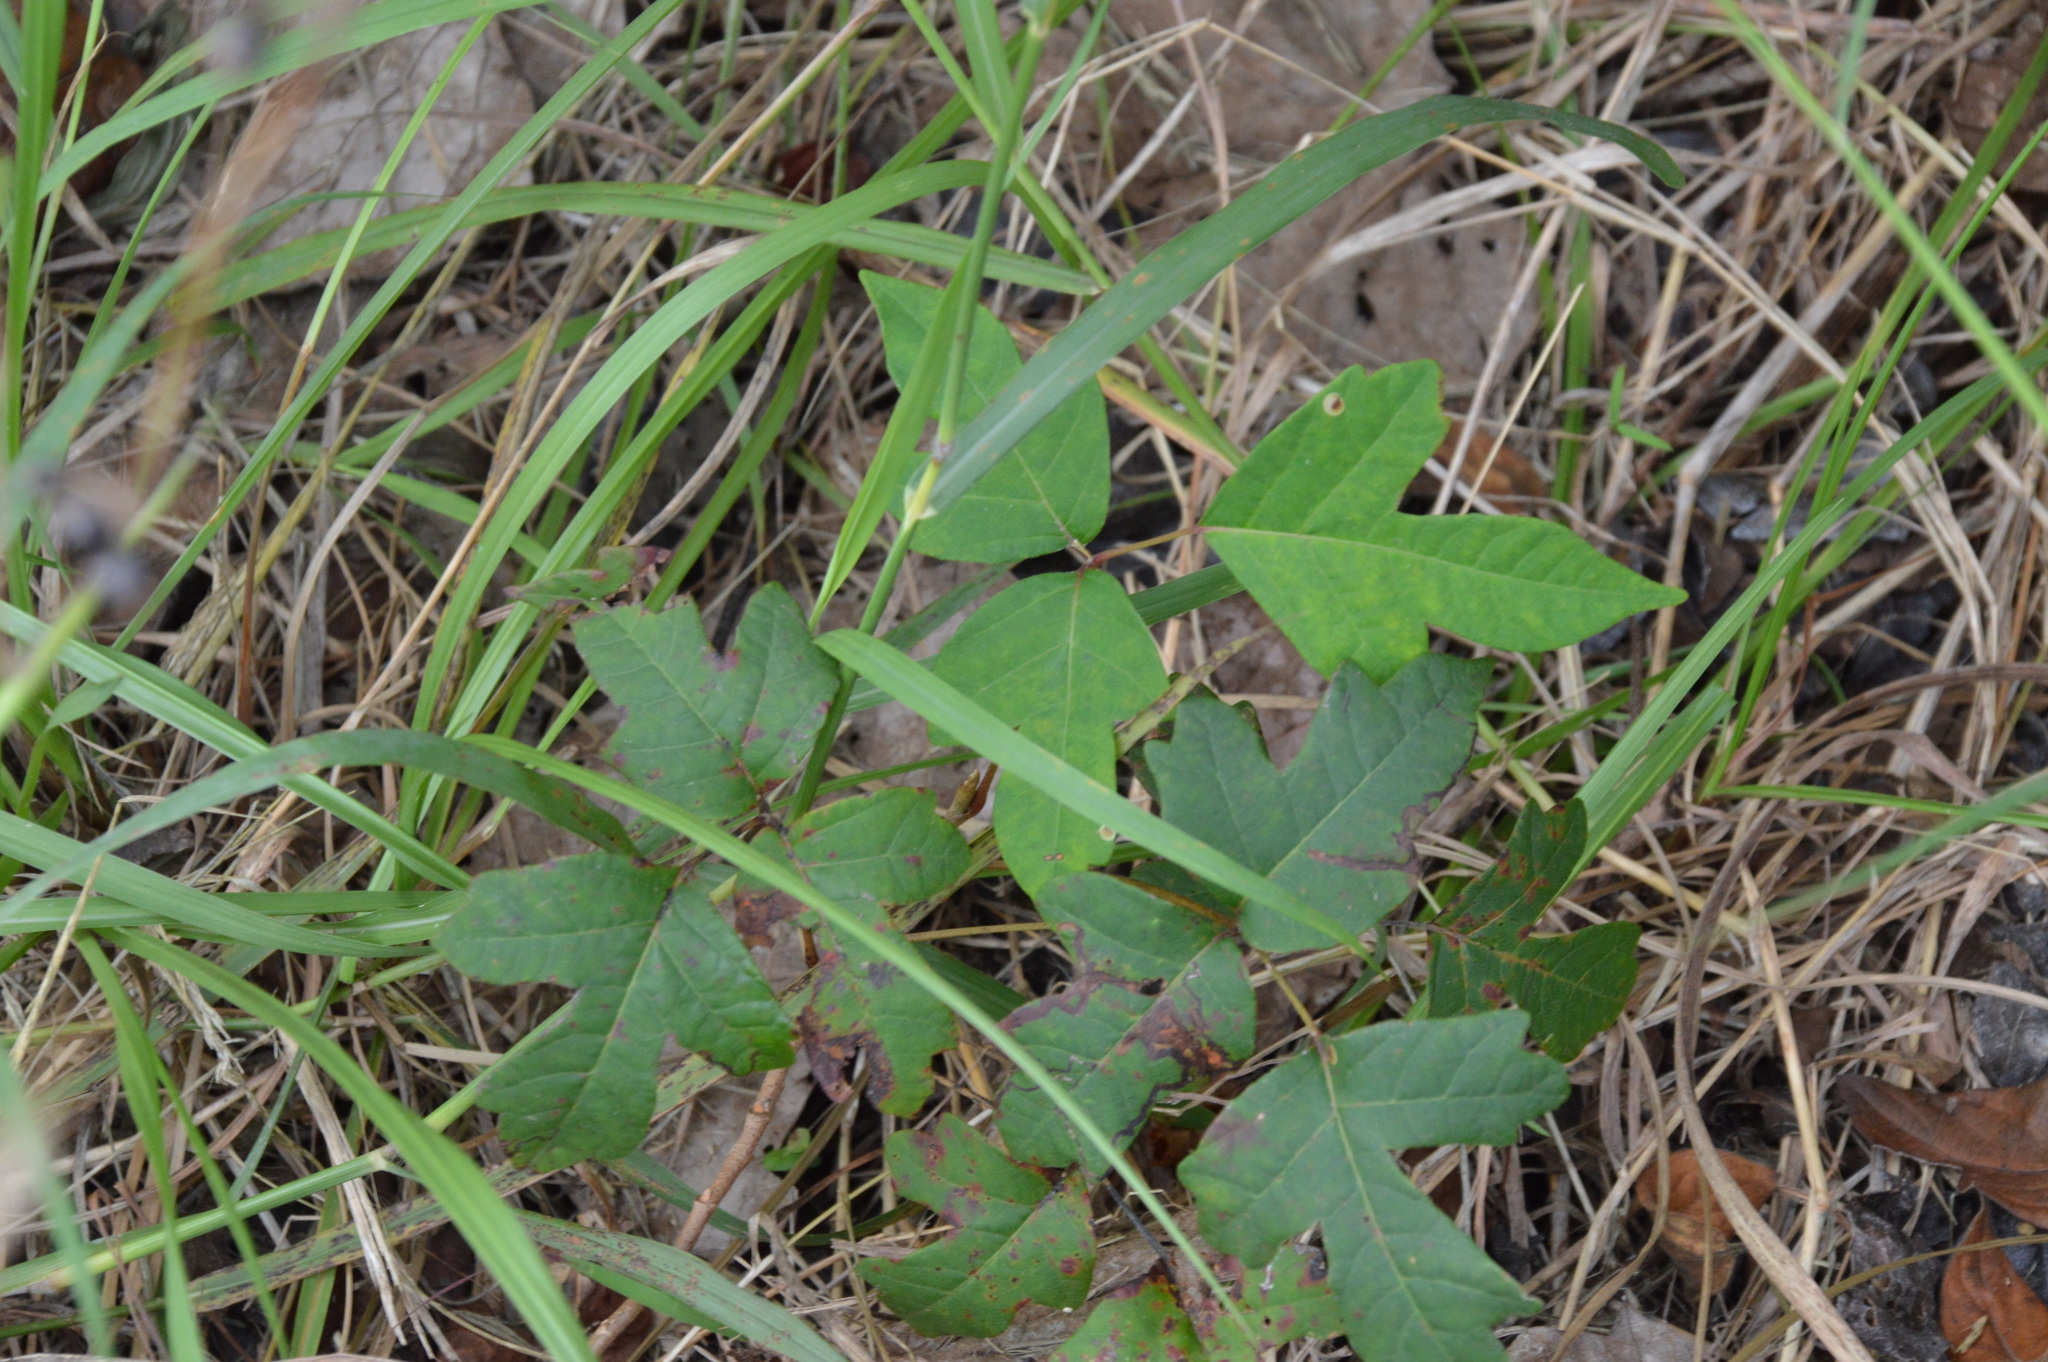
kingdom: Plantae
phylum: Tracheophyta
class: Magnoliopsida
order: Sapindales
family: Anacardiaceae
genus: Toxicodendron
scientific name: Toxicodendron radicans
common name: Poison ivy
